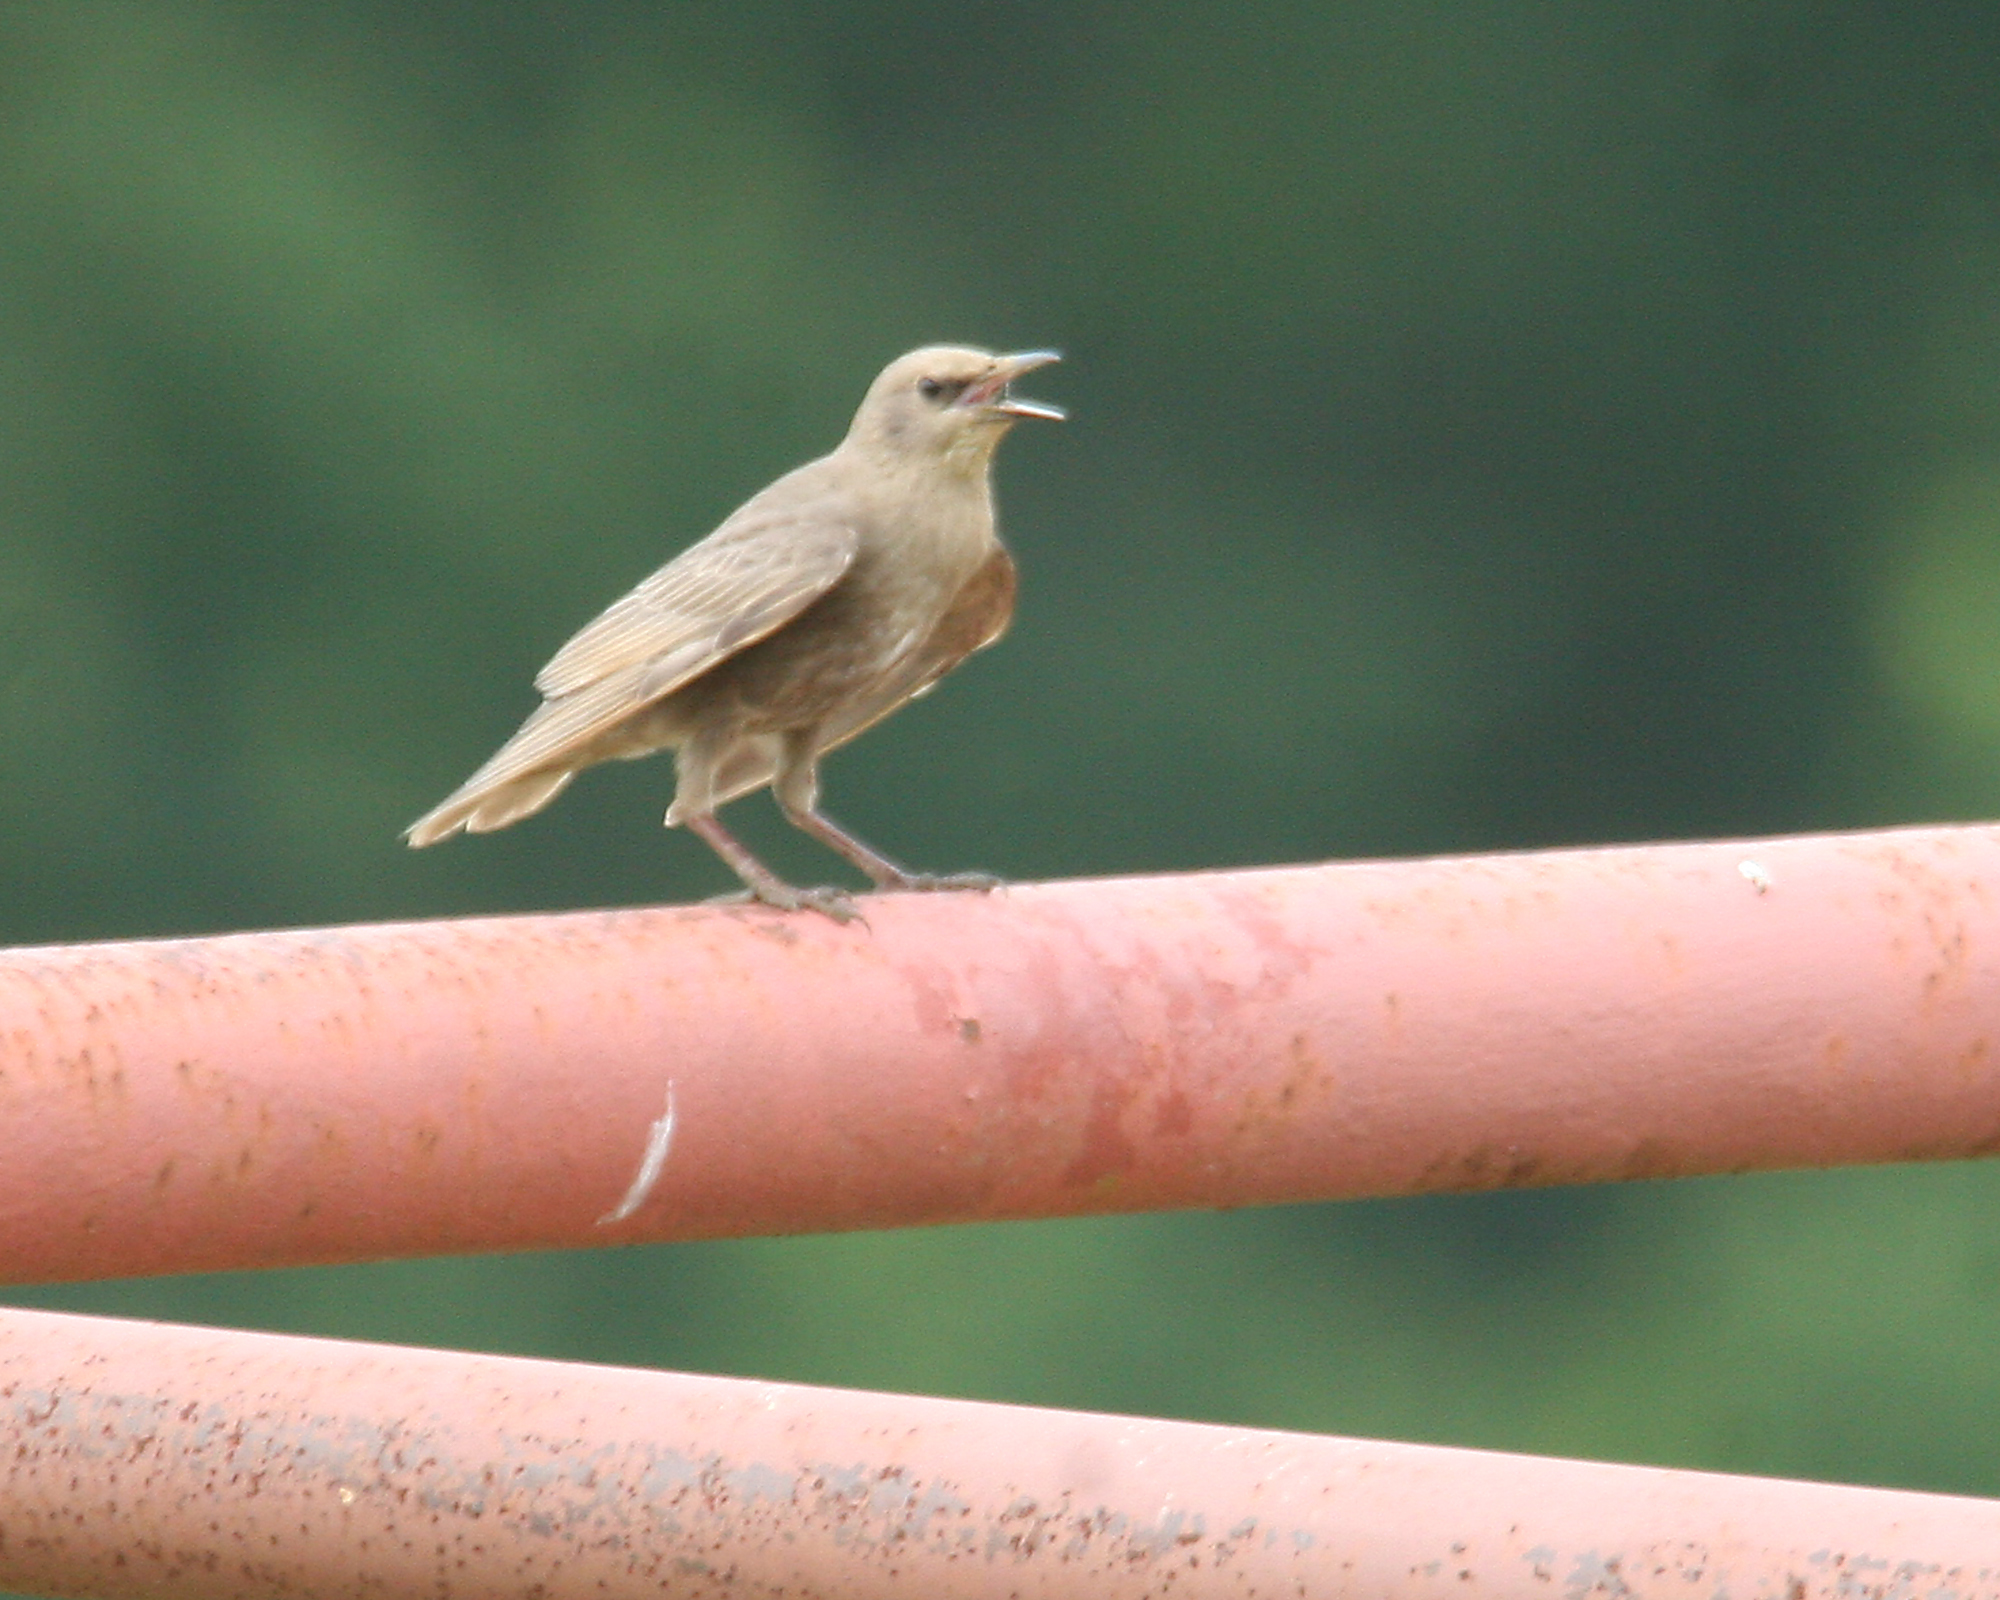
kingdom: Animalia
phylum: Chordata
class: Aves
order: Passeriformes
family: Sturnidae
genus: Sturnus
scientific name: Sturnus vulgaris
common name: Common starling
